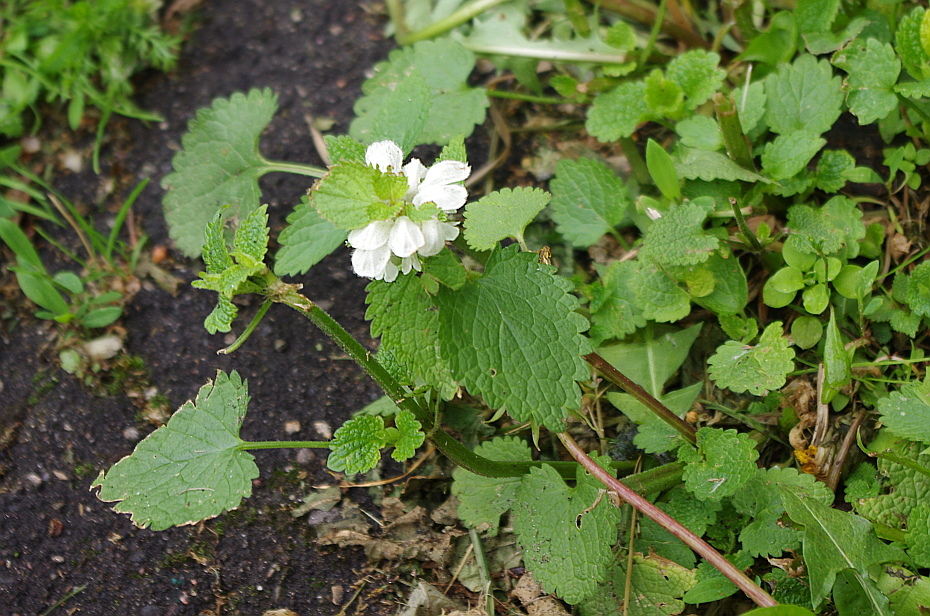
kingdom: Plantae
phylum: Tracheophyta
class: Magnoliopsida
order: Lamiales
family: Lamiaceae
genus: Lamium
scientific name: Lamium album
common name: White dead-nettle
